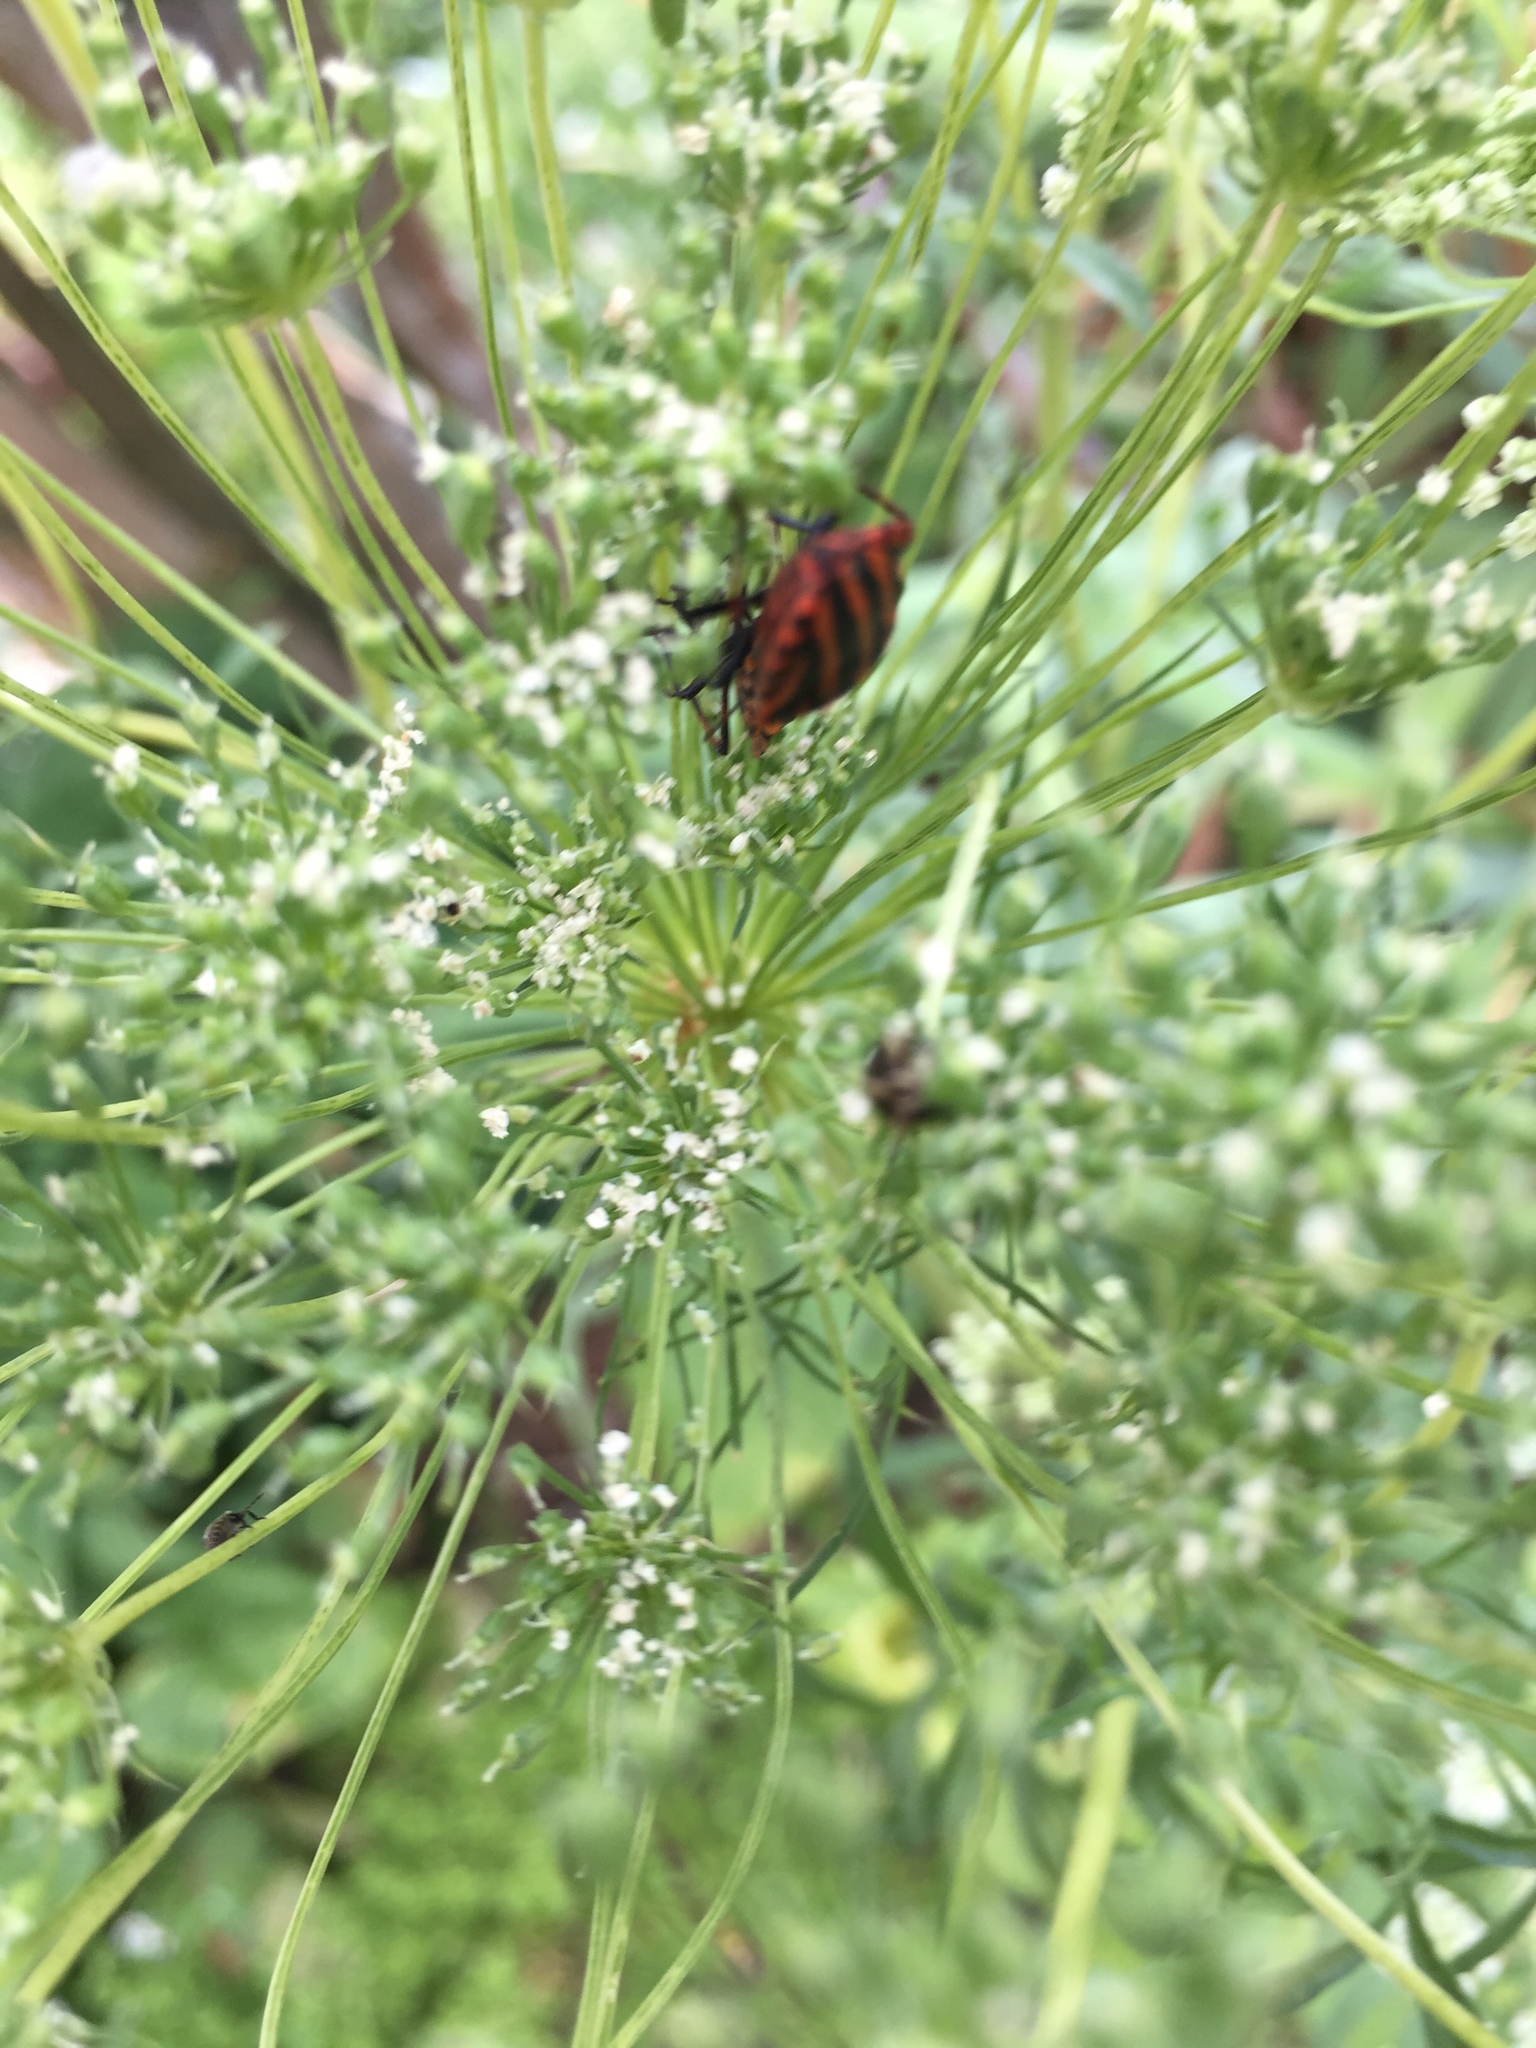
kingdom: Animalia
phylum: Arthropoda
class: Insecta
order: Hemiptera
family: Pentatomidae
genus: Graphosoma
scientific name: Graphosoma italicum
